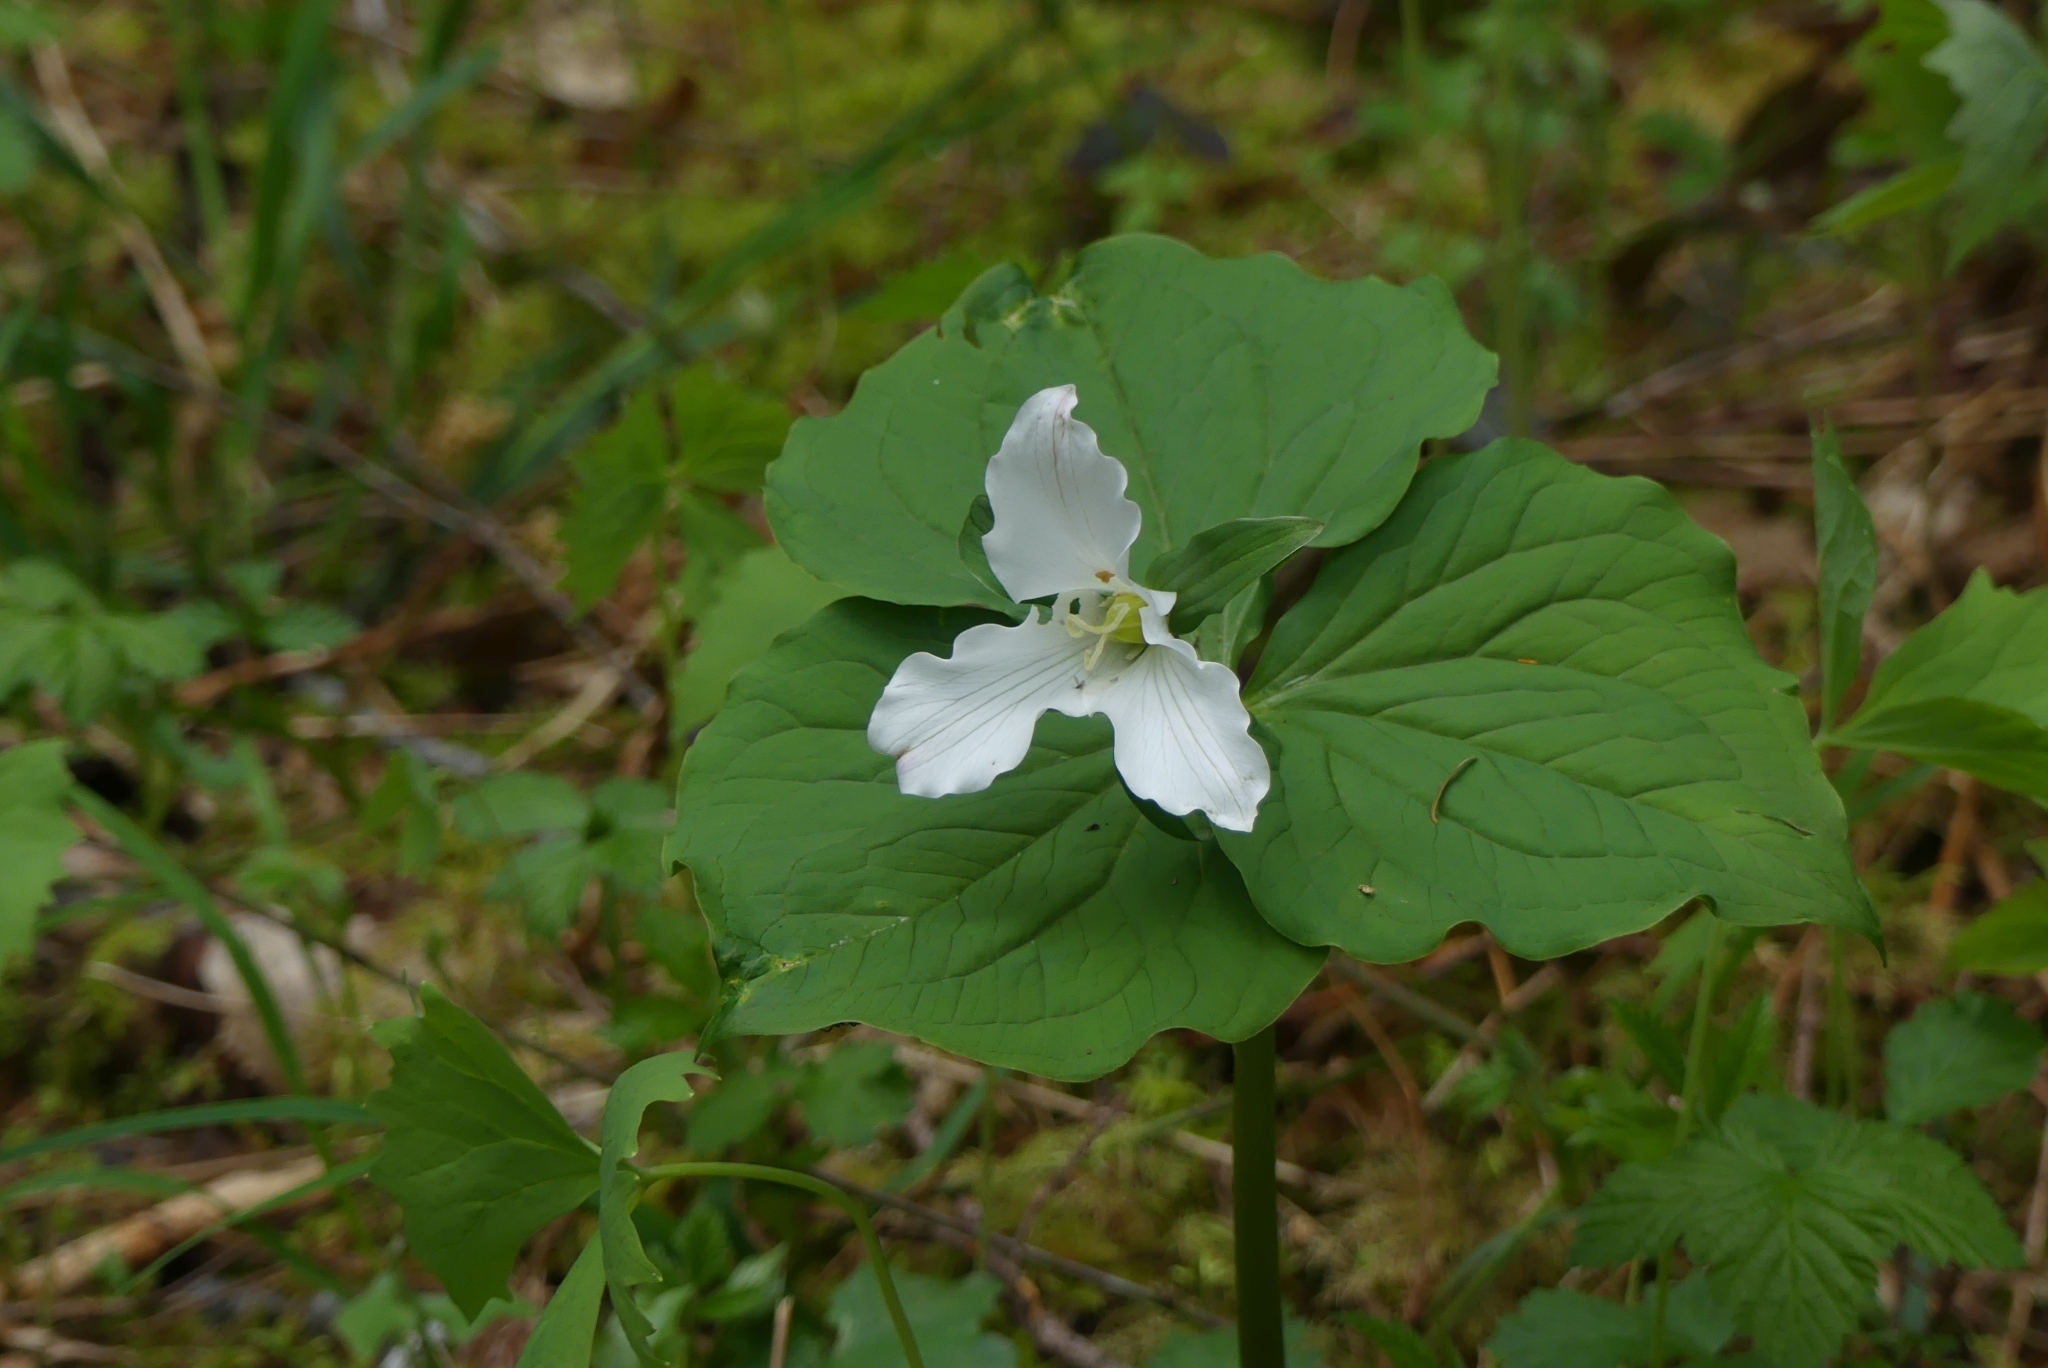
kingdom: Plantae
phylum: Tracheophyta
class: Liliopsida
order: Liliales
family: Melanthiaceae
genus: Trillium
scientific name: Trillium ovatum
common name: Pacific trillium
